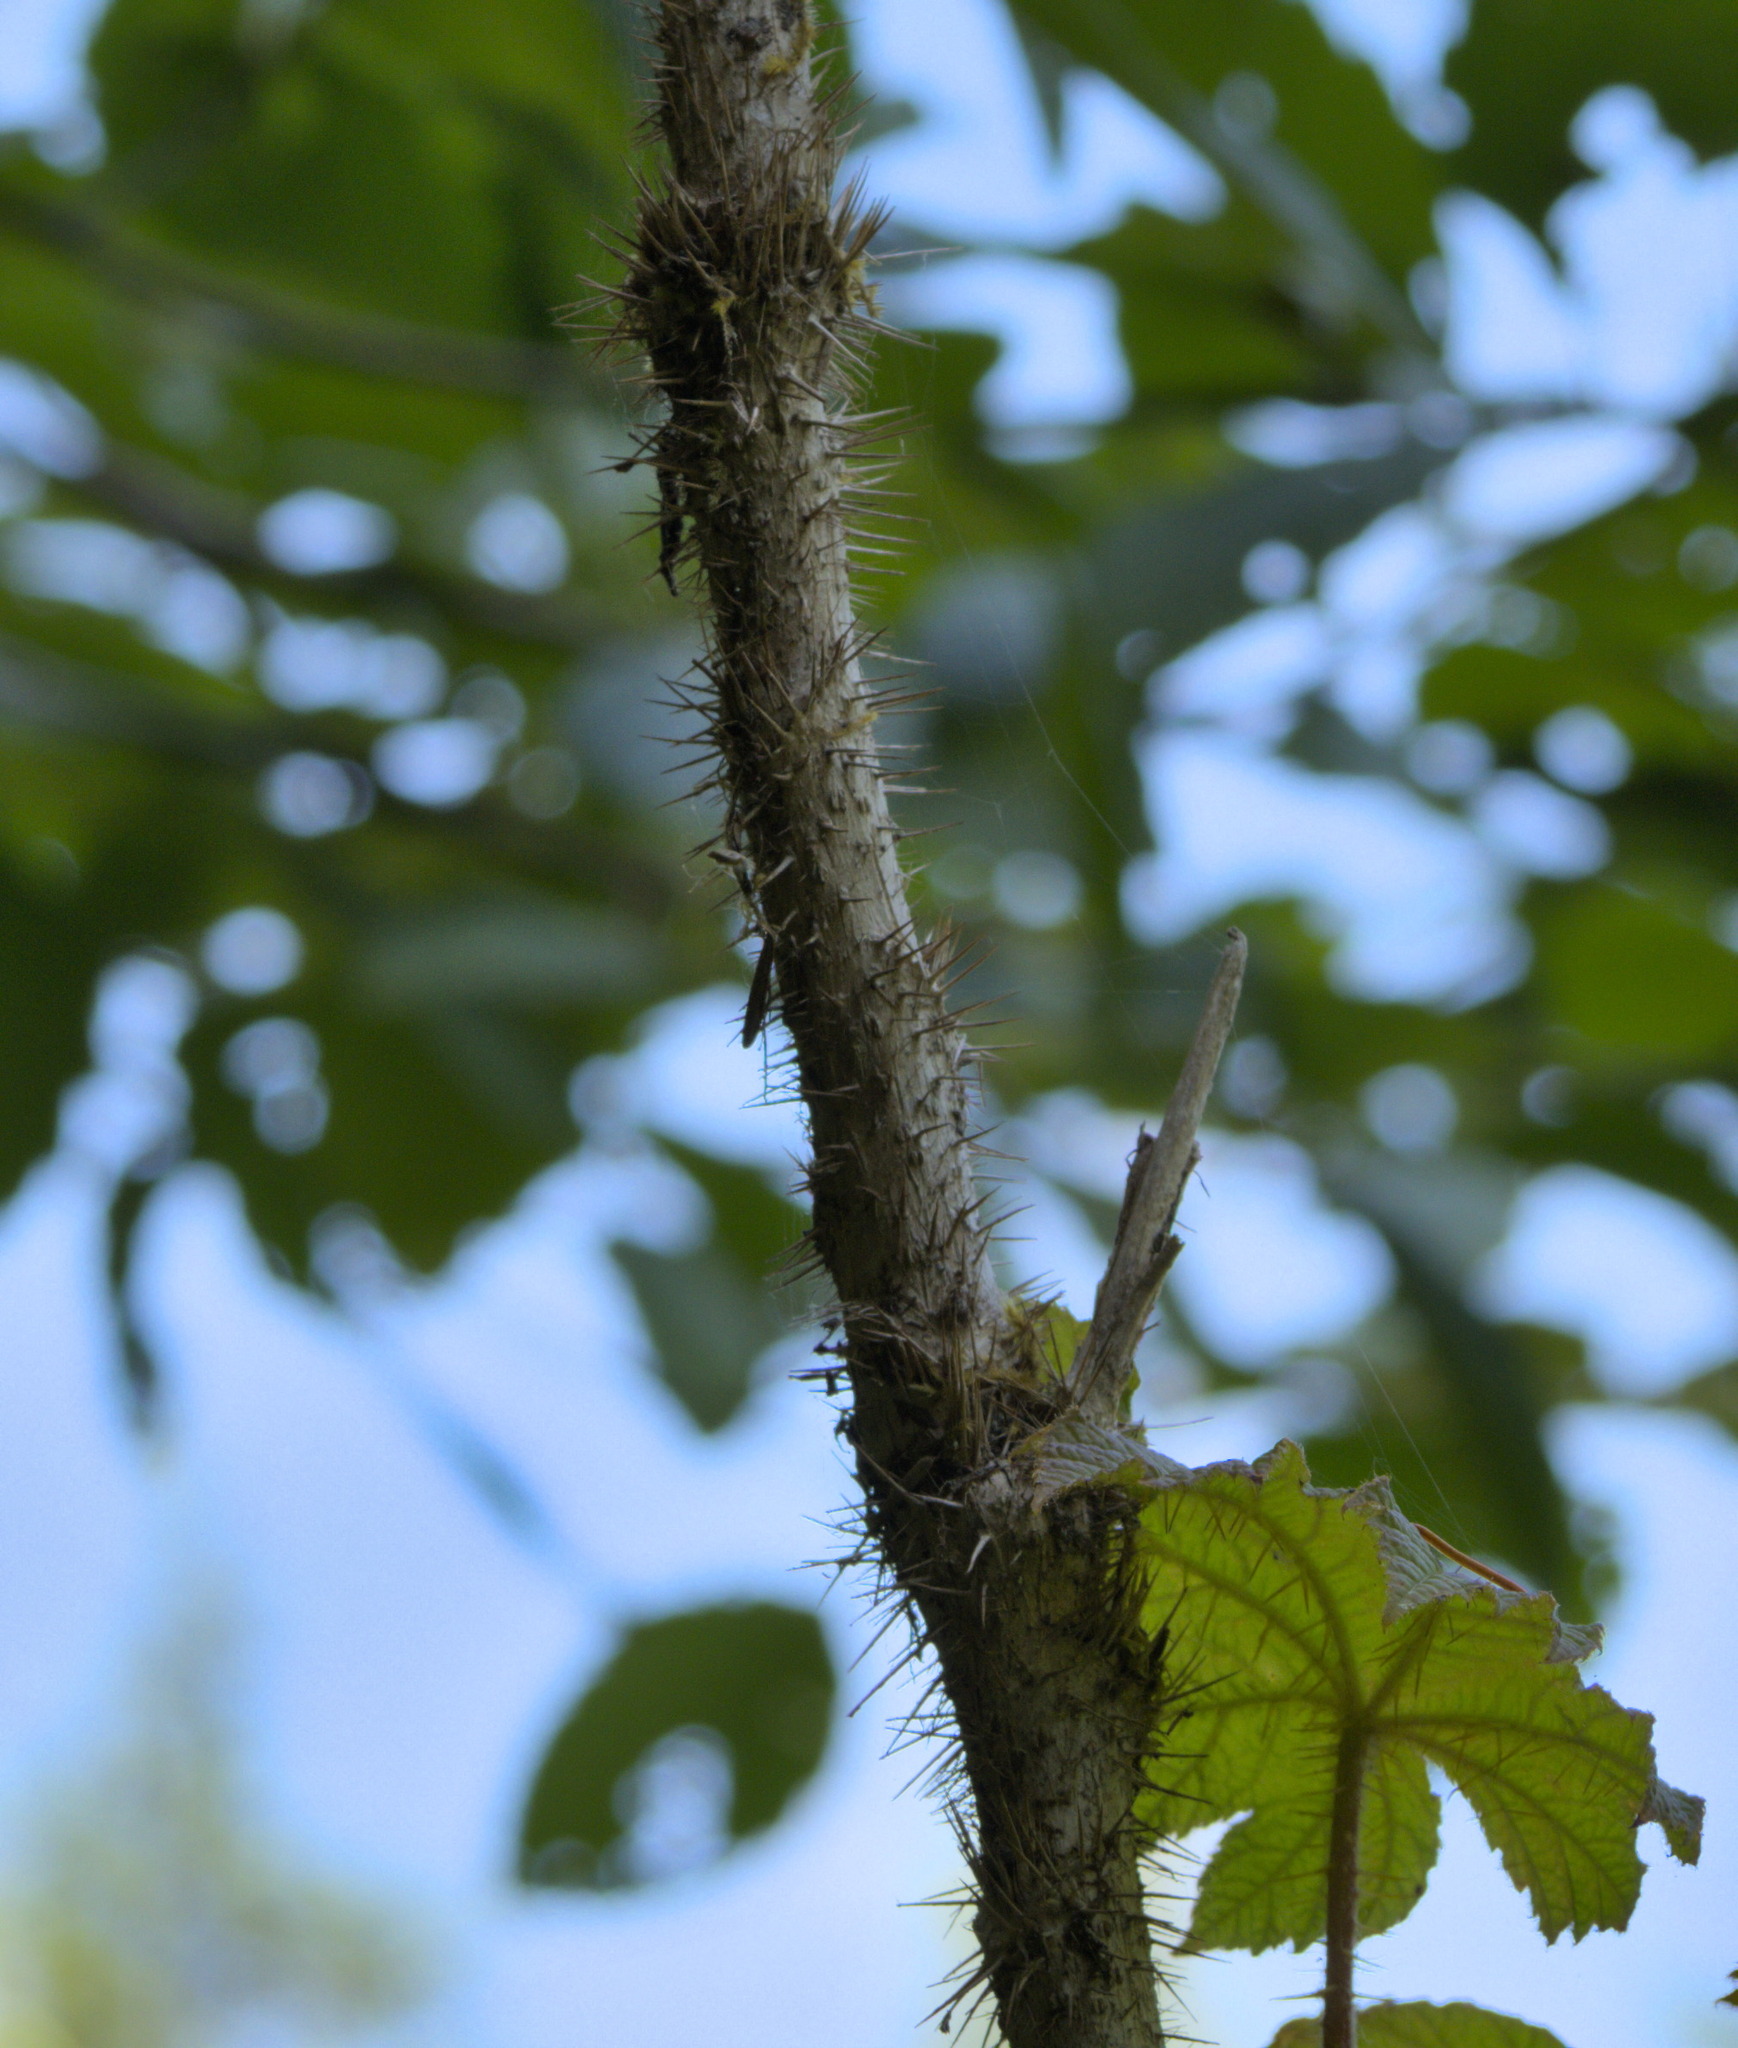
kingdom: Plantae
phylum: Tracheophyta
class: Magnoliopsida
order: Apiales
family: Araliaceae
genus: Oplopanax
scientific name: Oplopanax horridus
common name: Devil's walking-stick
